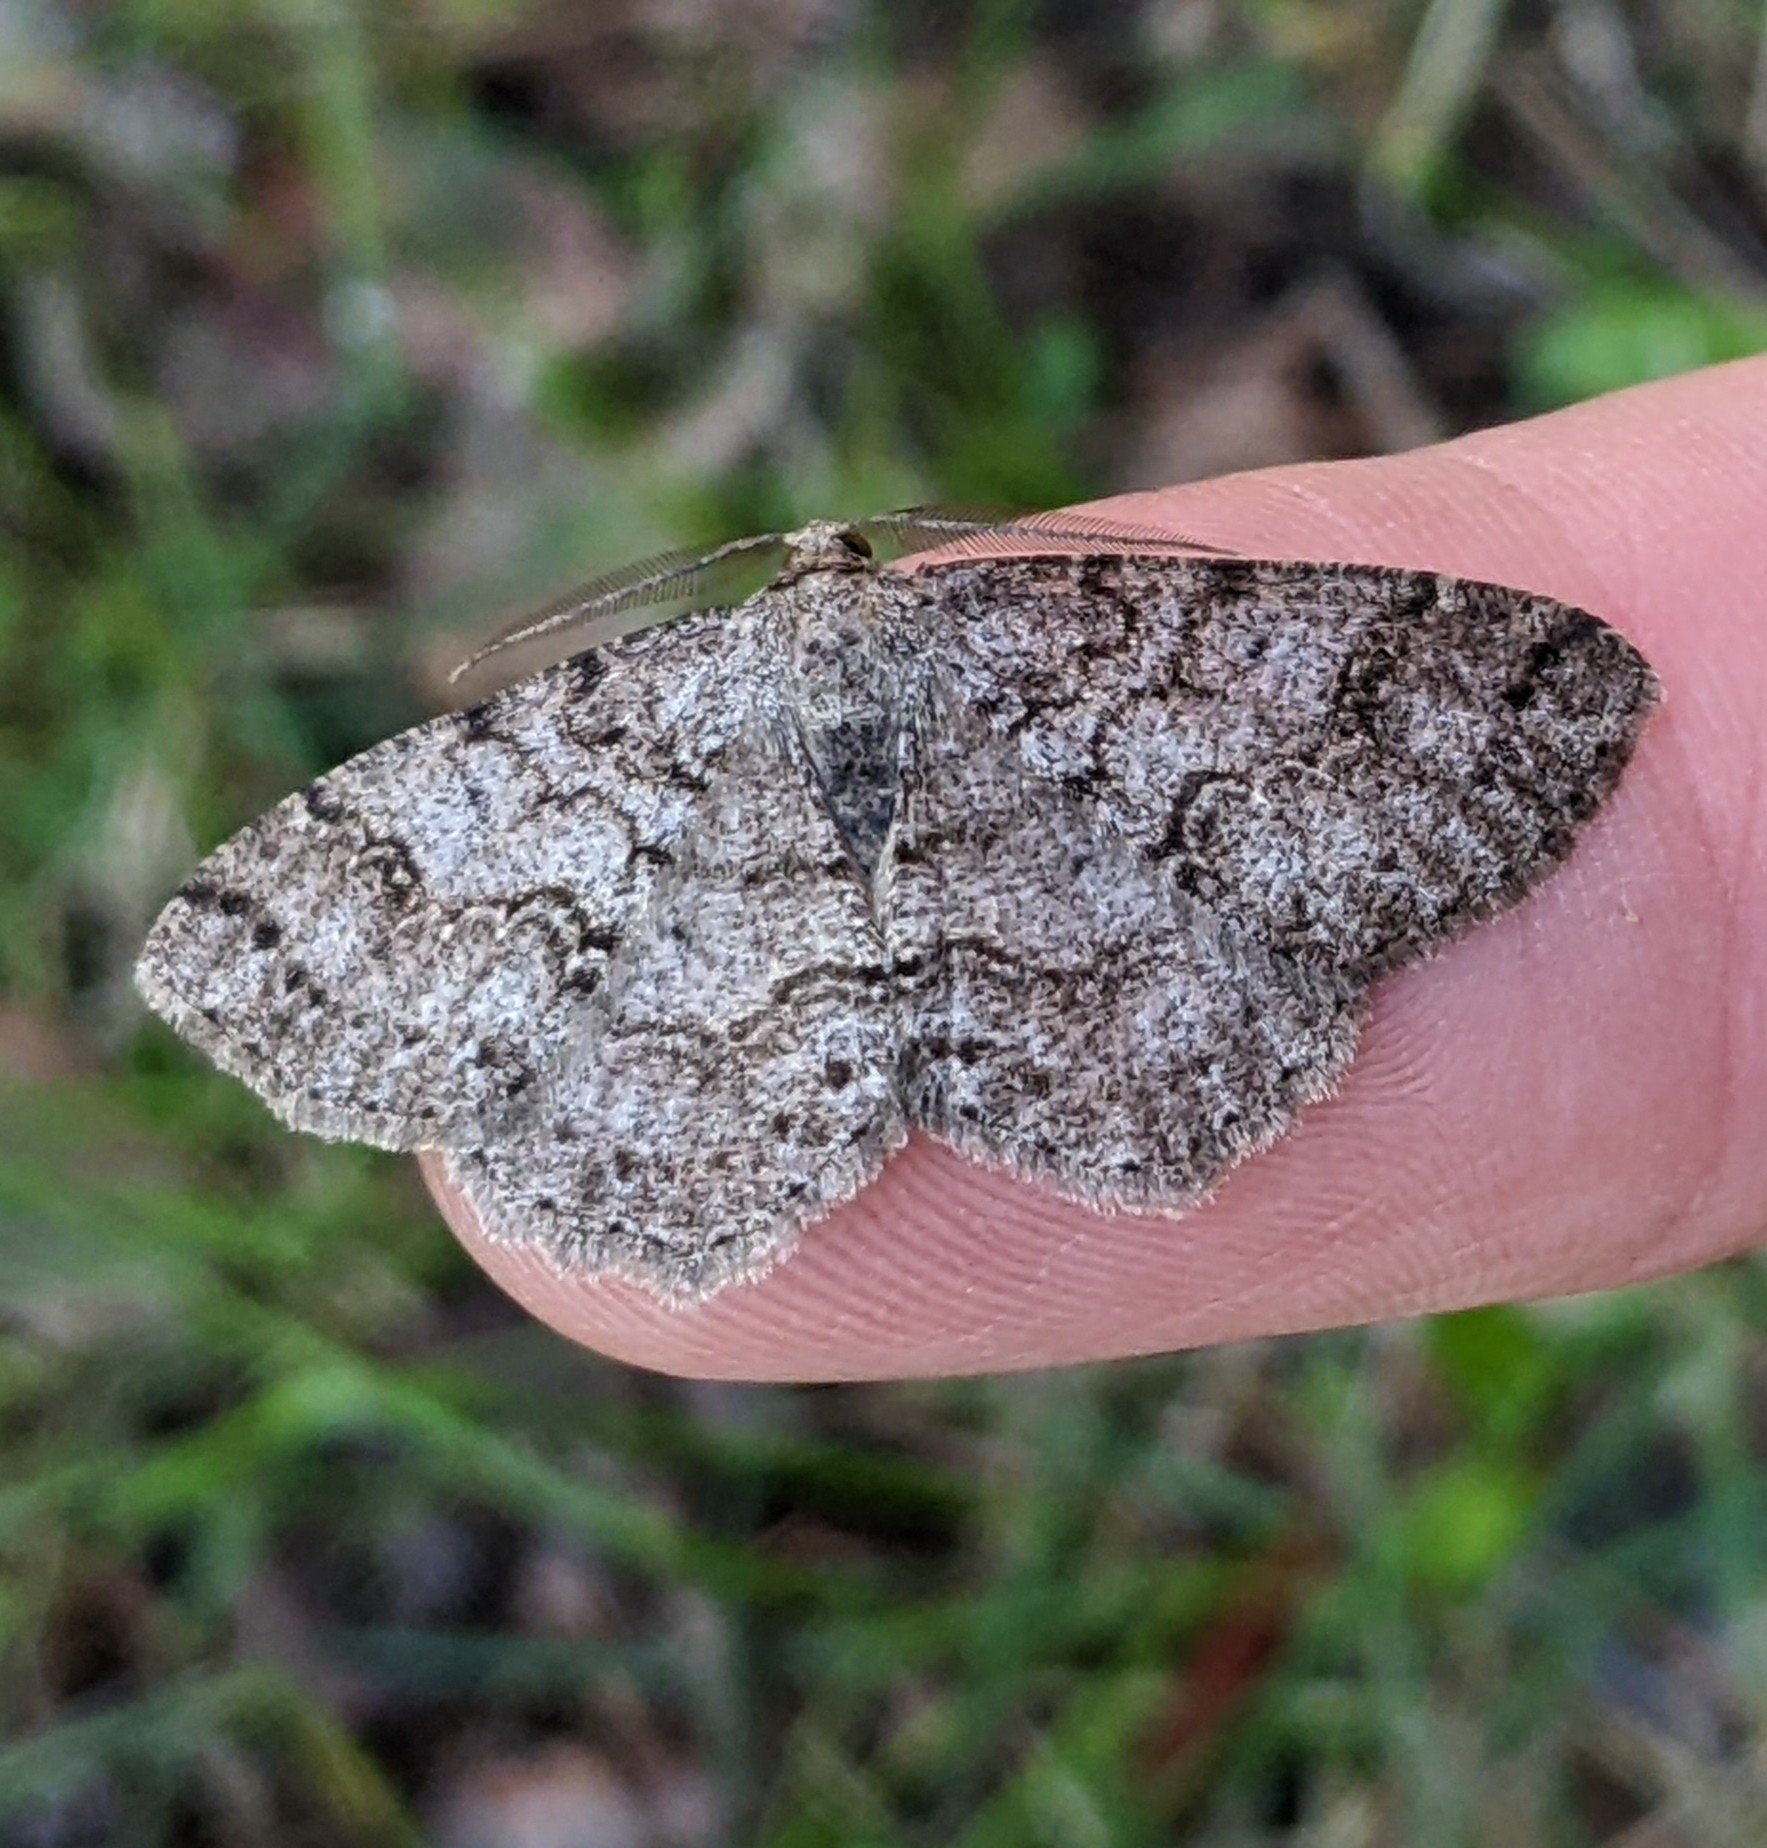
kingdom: Animalia
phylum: Arthropoda
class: Insecta
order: Lepidoptera
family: Geometridae
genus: Melanolophia
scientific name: Melanolophia imitata
